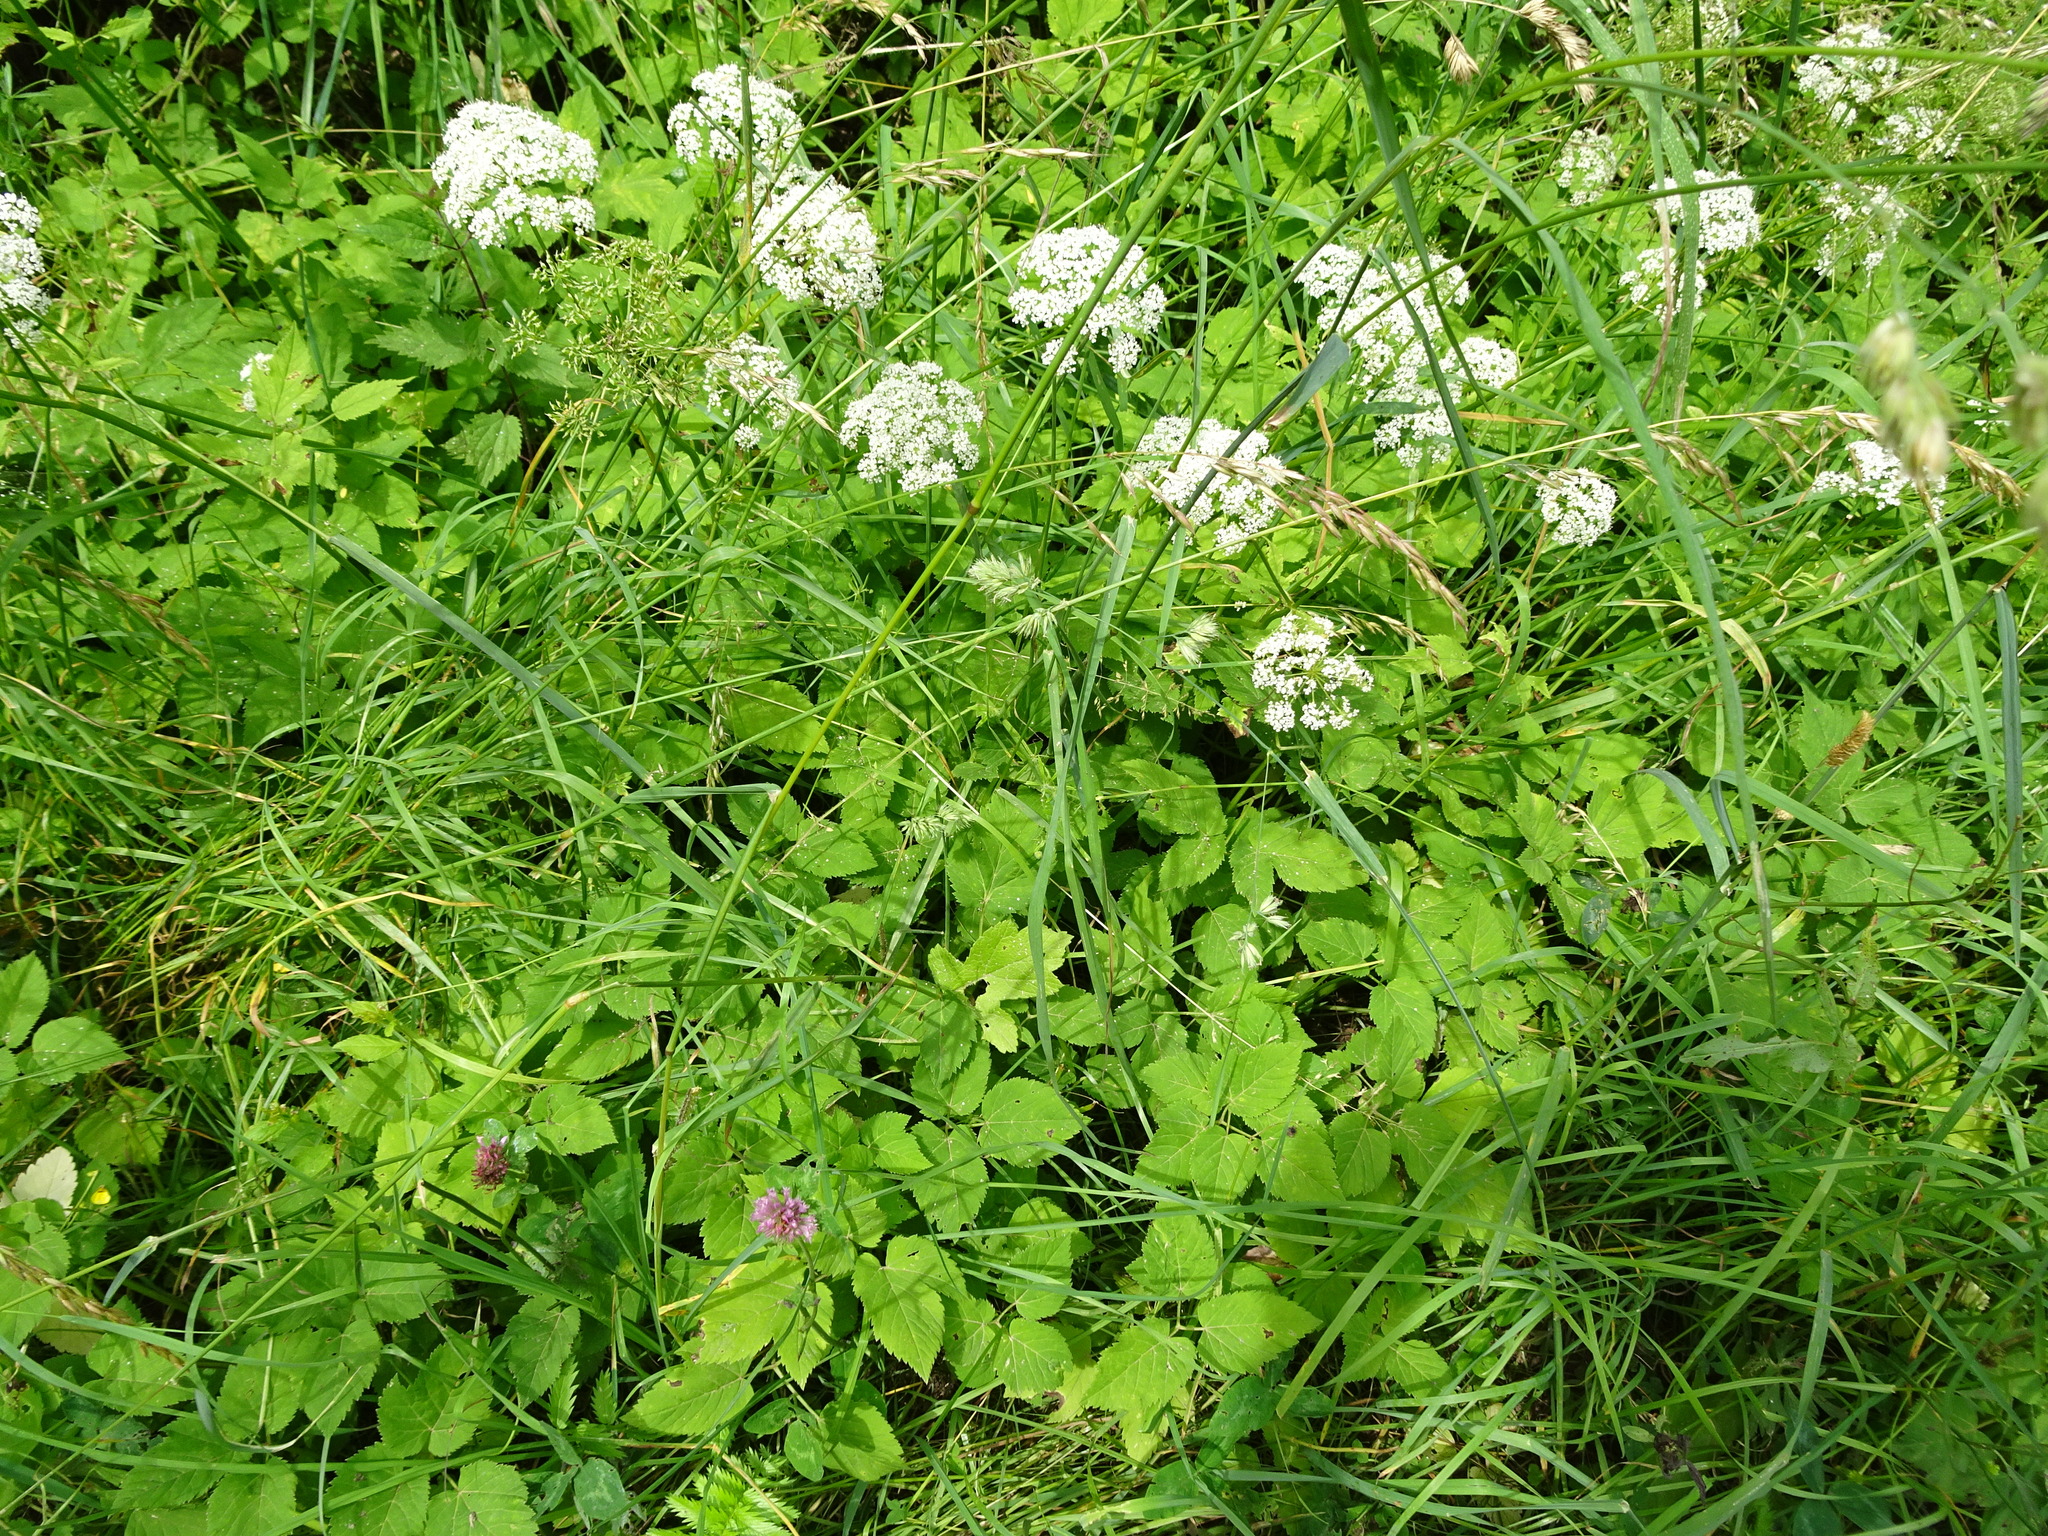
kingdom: Plantae
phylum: Tracheophyta
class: Magnoliopsida
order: Apiales
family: Apiaceae
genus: Aegopodium
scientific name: Aegopodium podagraria
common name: Ground-elder
